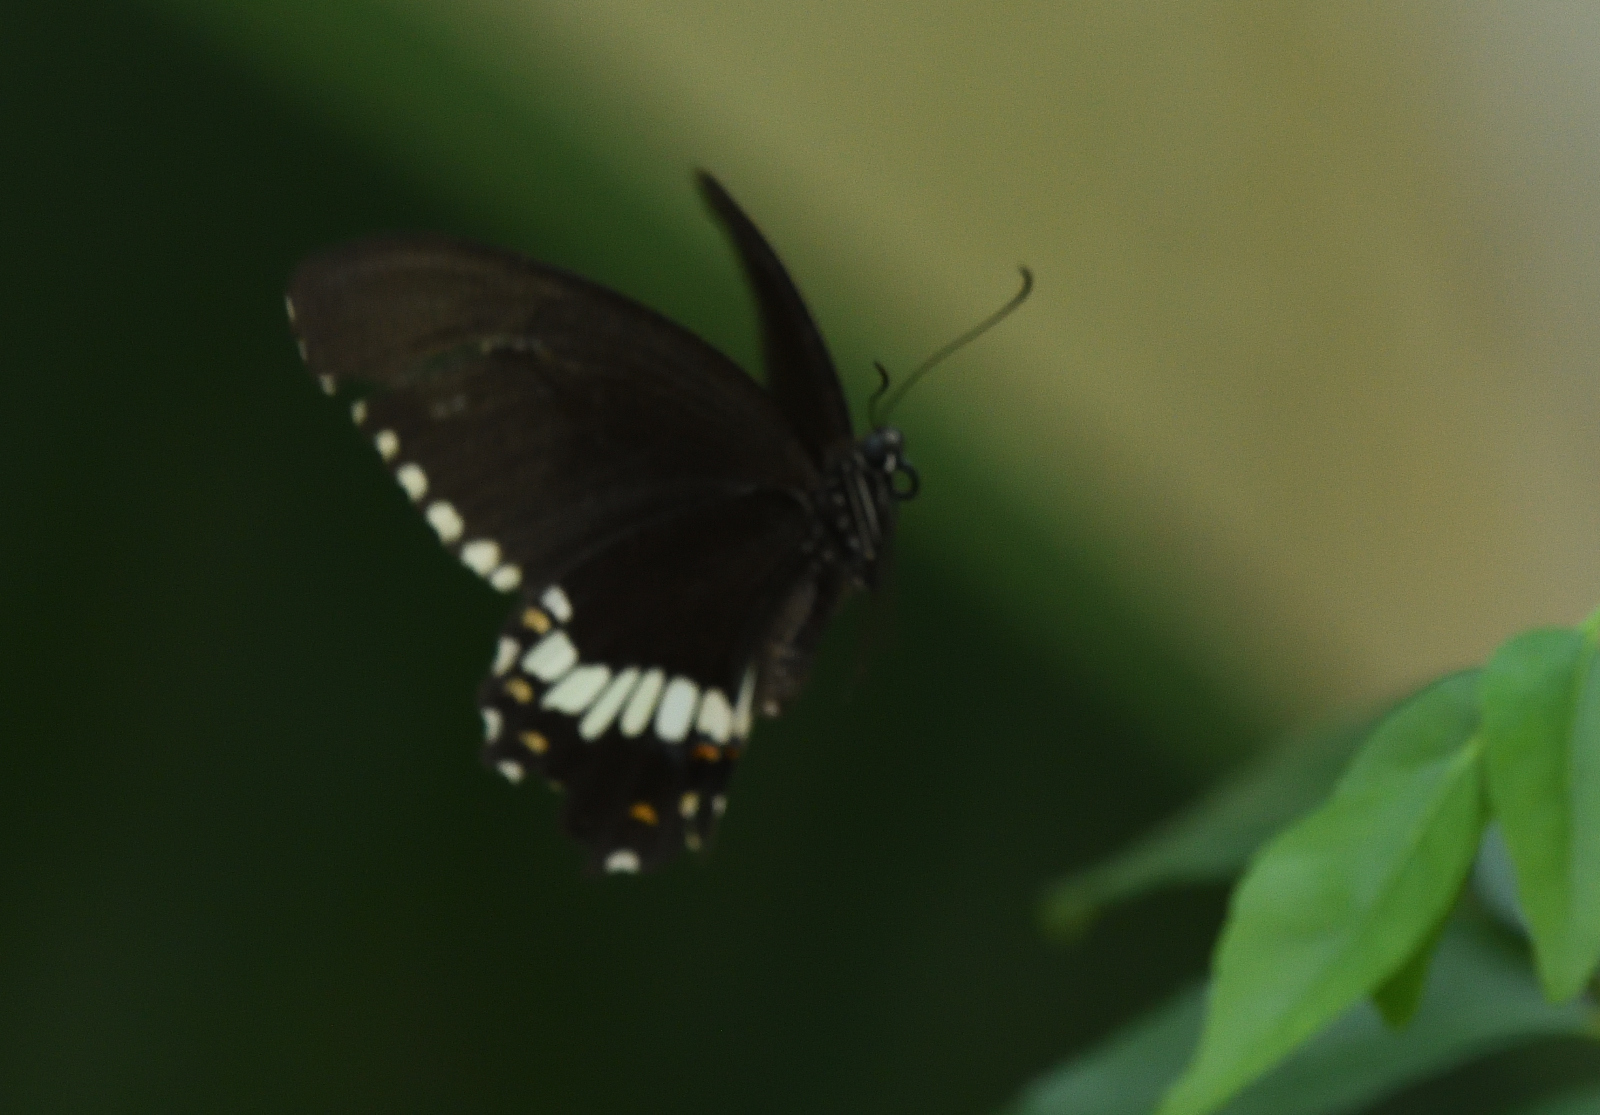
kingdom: Animalia
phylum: Arthropoda
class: Insecta
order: Lepidoptera
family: Papilionidae
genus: Papilio
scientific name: Papilio polytes
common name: Common mormon
